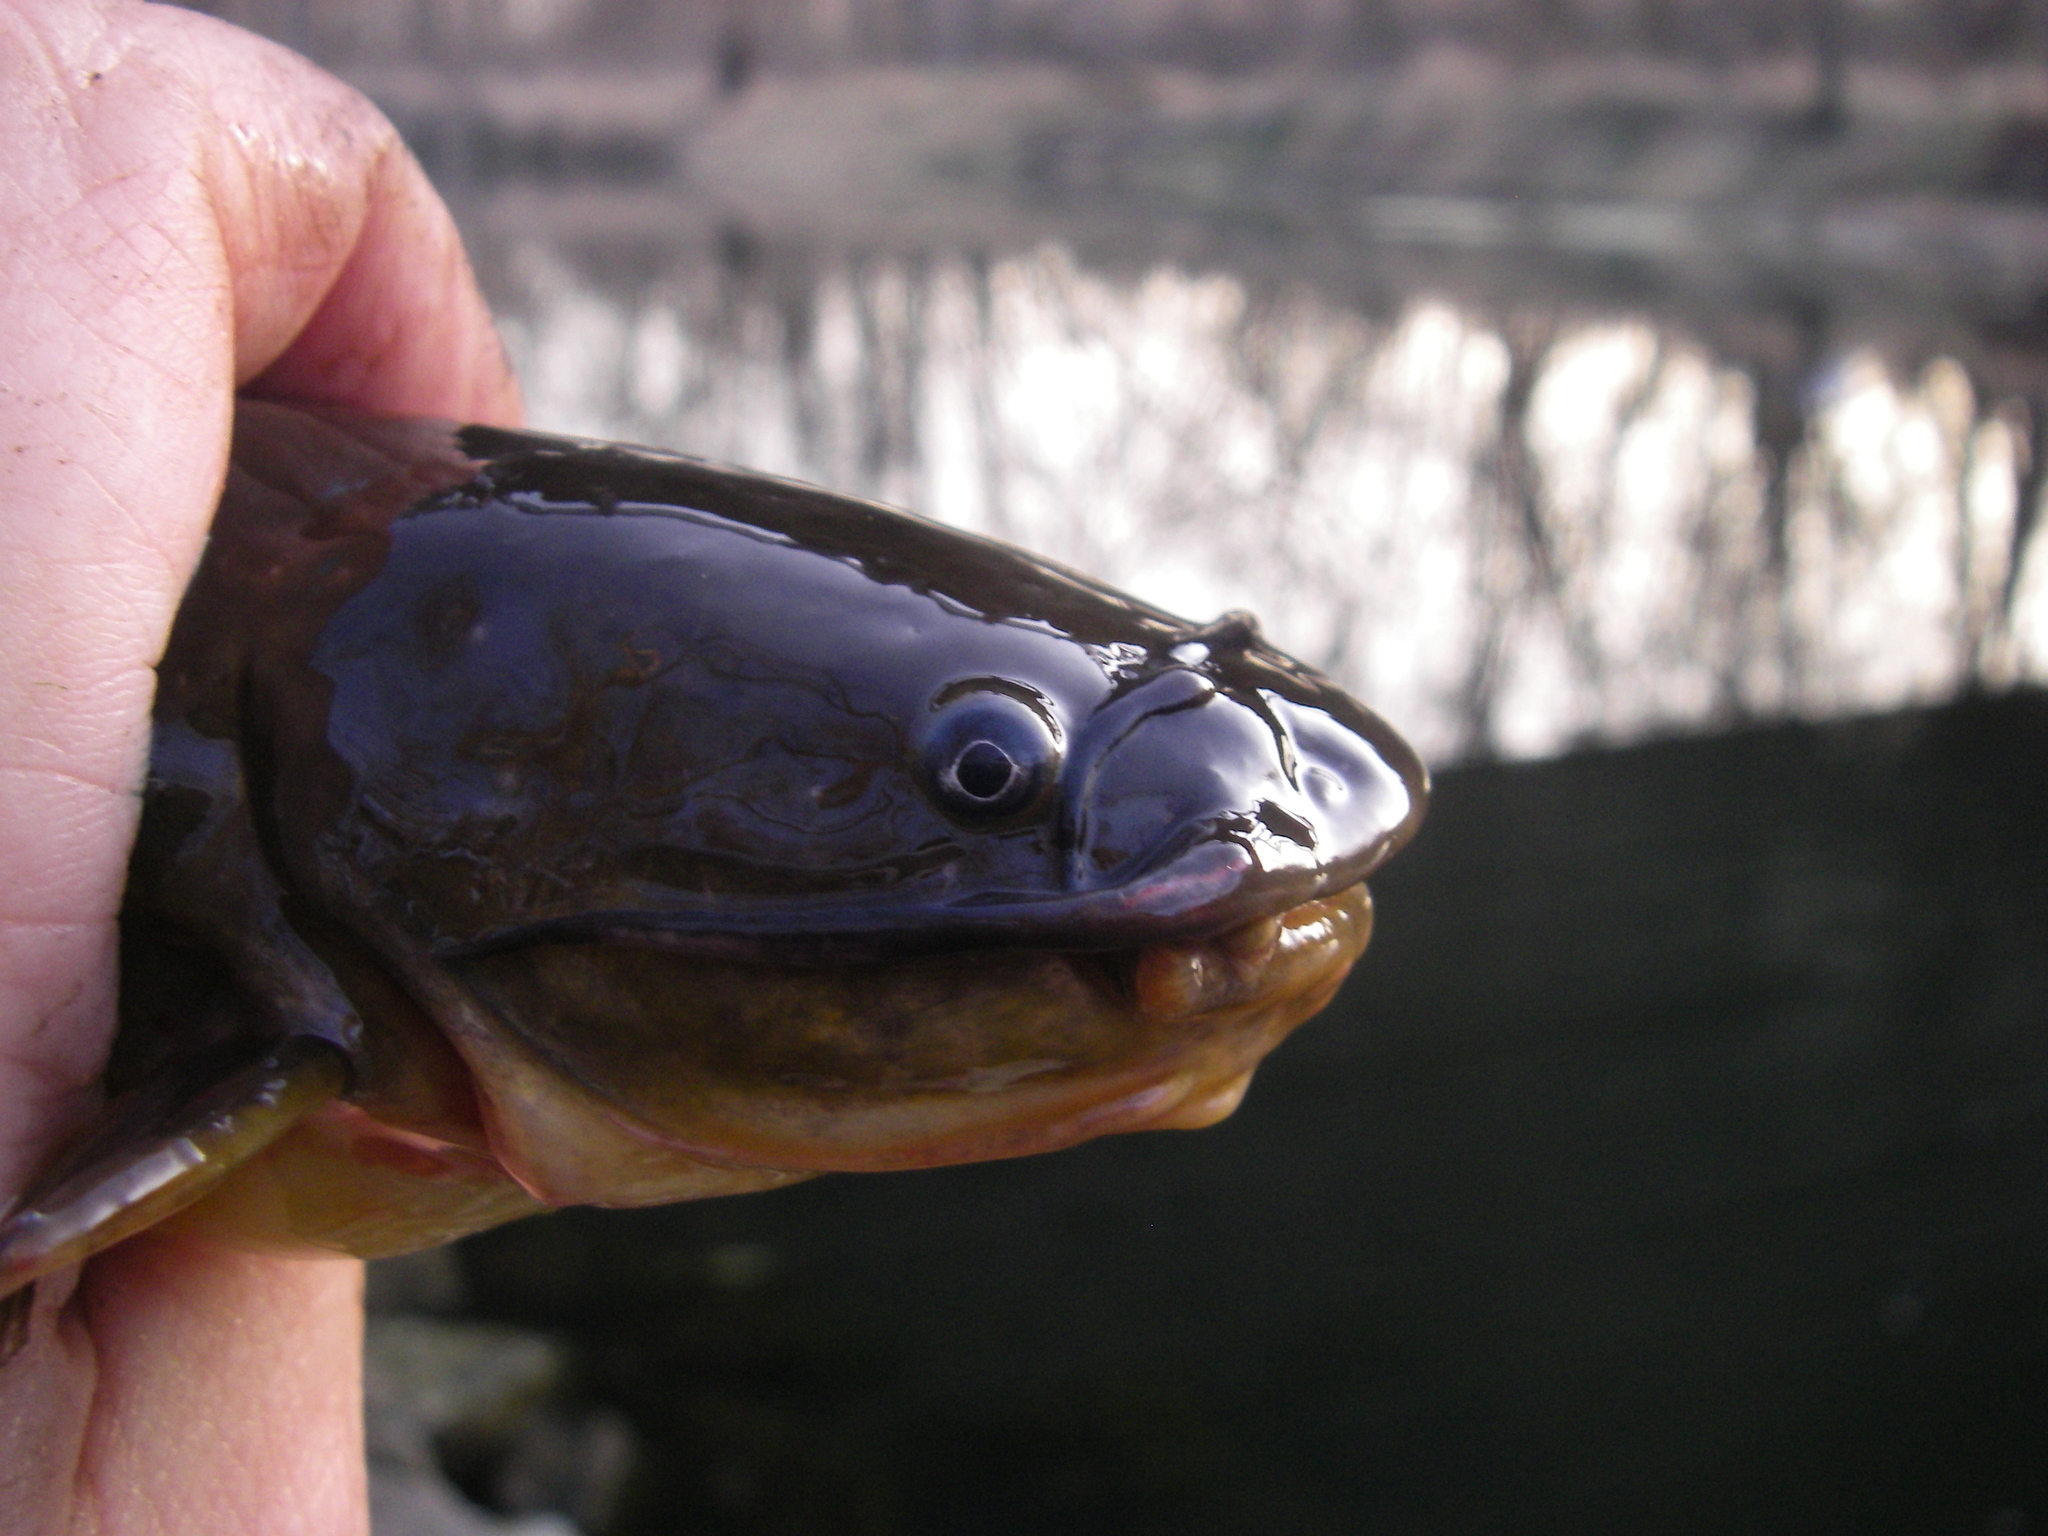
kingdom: Animalia
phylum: Chordata
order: Siluriformes
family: Ictaluridae
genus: Ameiurus
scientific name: Ameiurus natalis
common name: Yellow bullhead
